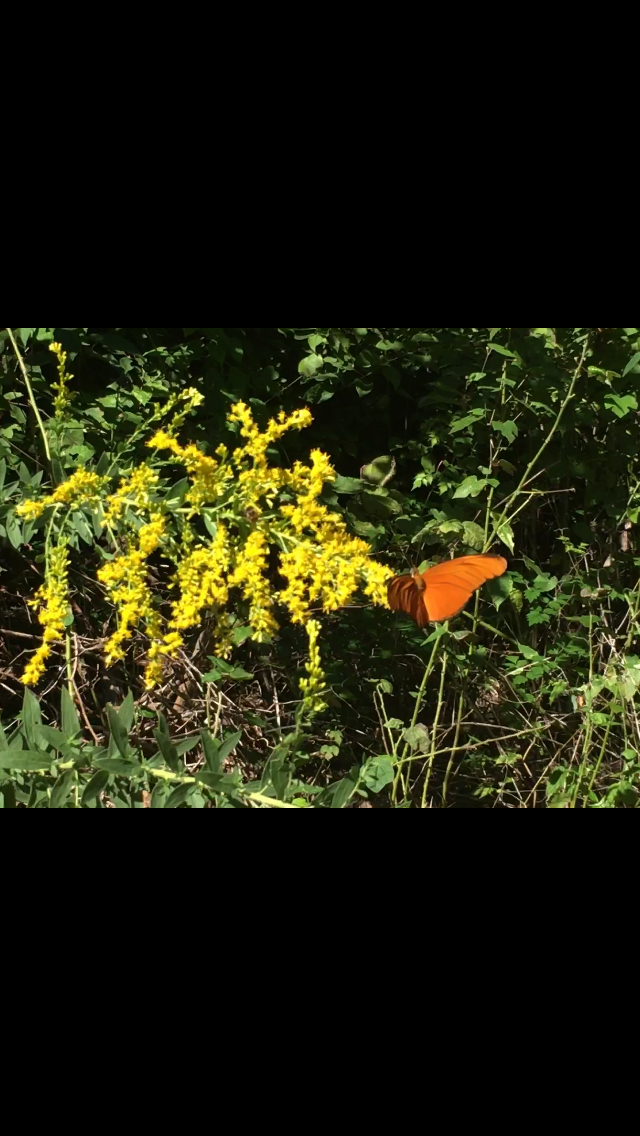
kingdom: Animalia
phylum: Arthropoda
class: Insecta
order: Lepidoptera
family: Nymphalidae
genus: Dryas
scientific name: Dryas iulia
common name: Flambeau
